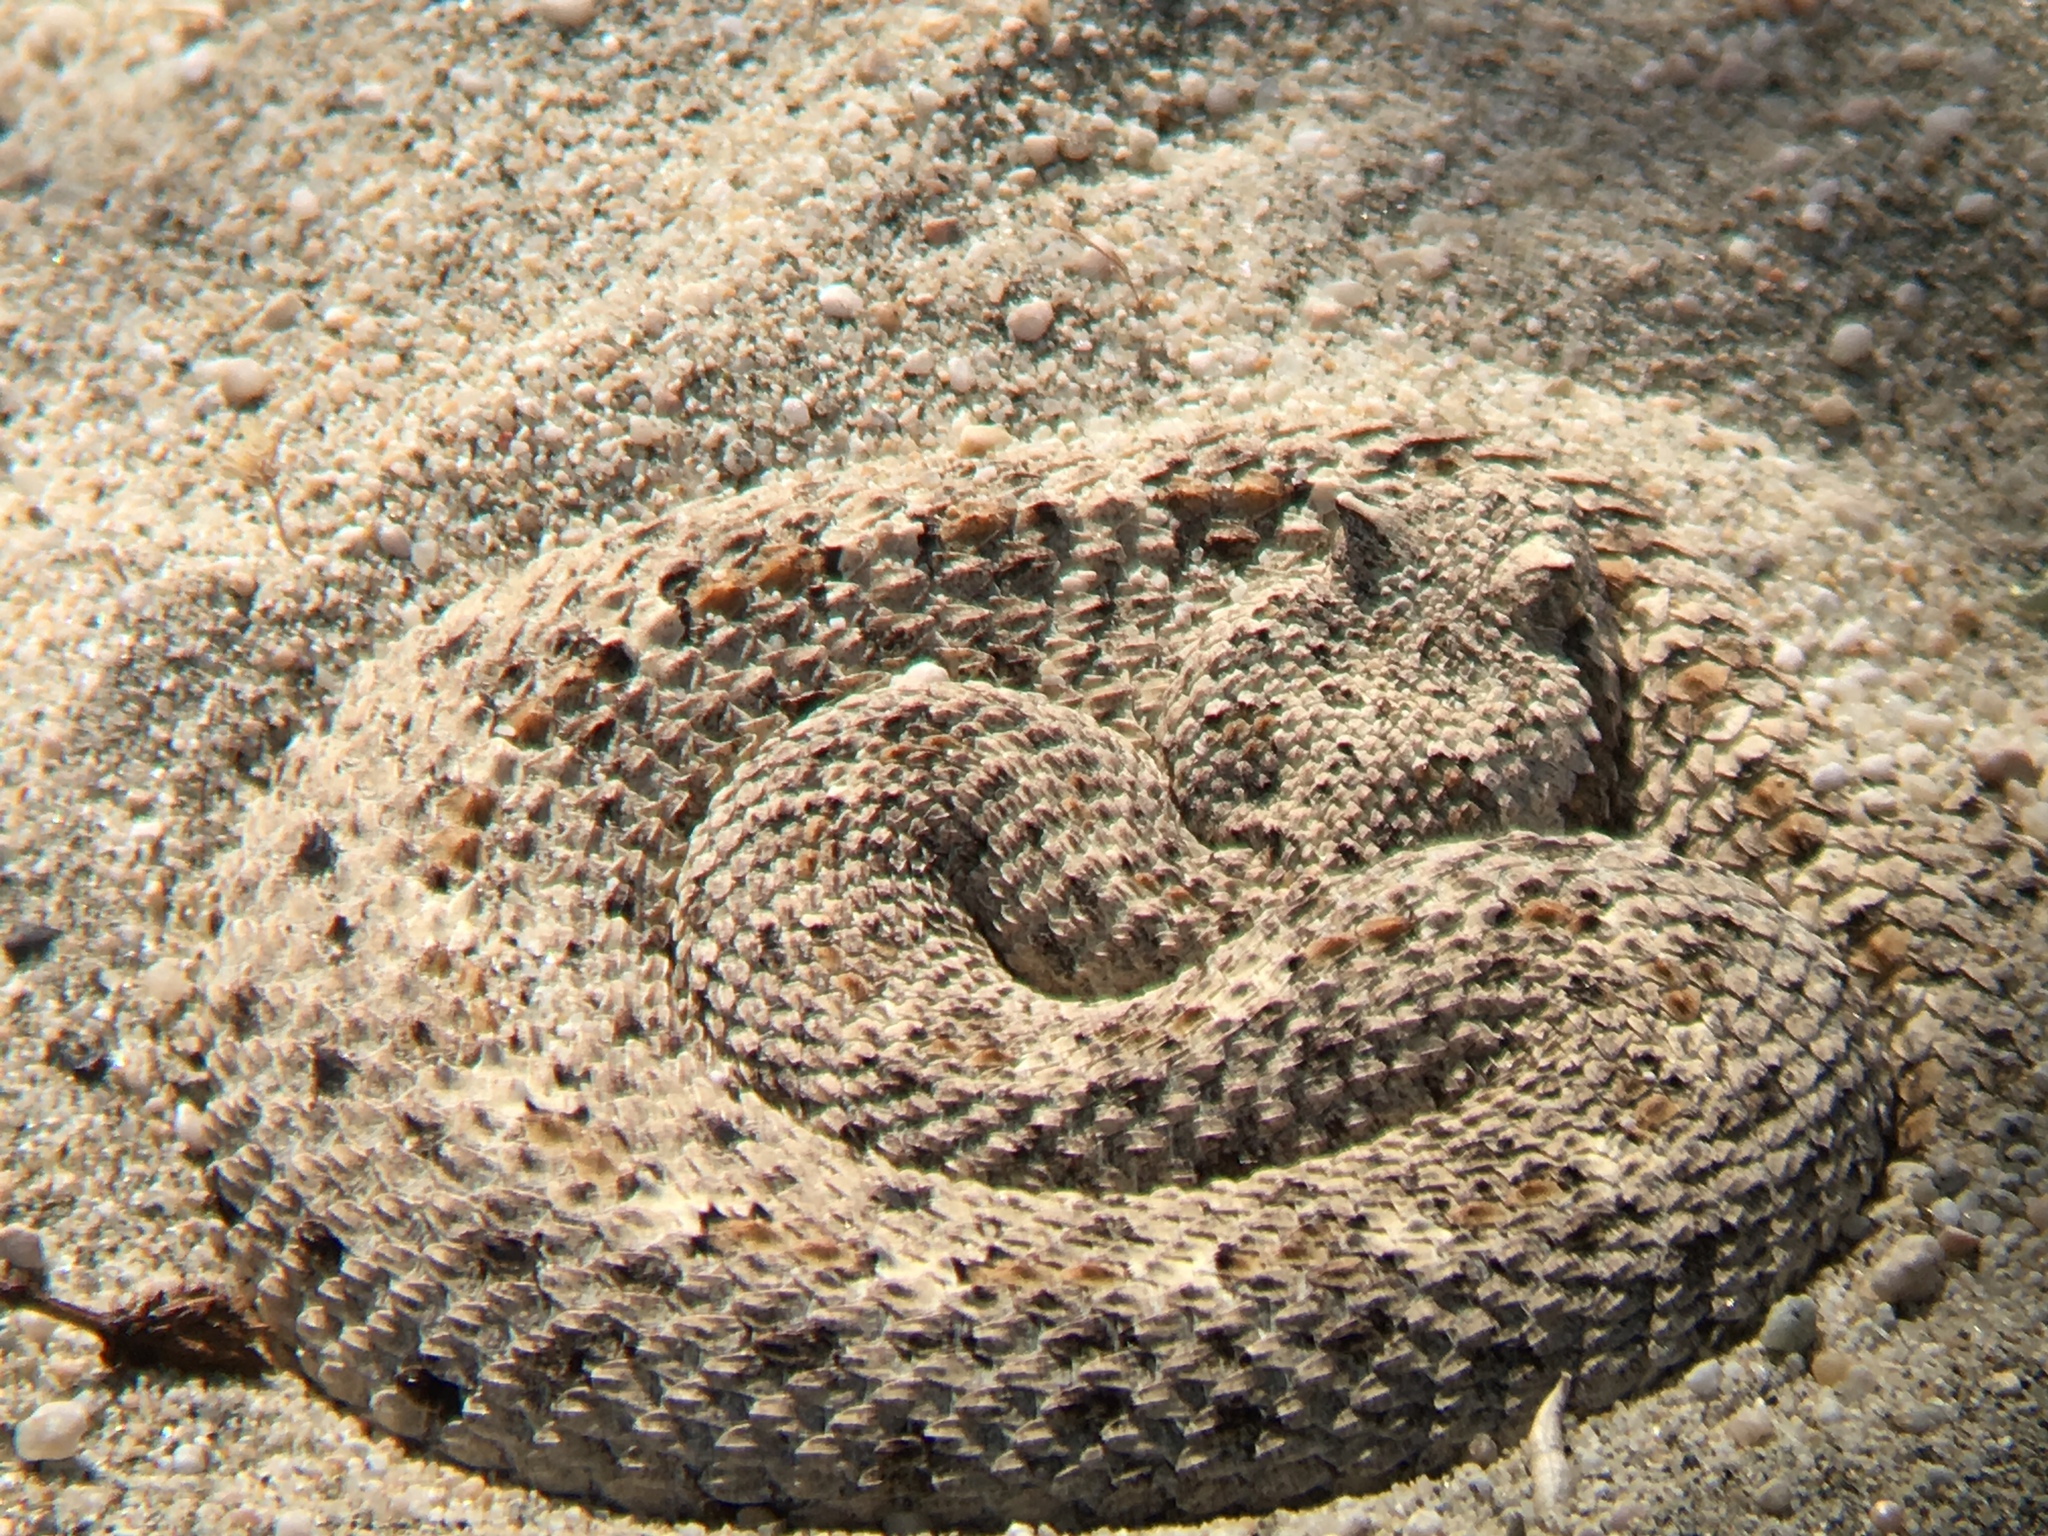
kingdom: Animalia
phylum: Chordata
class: Squamata
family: Viperidae
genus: Crotalus
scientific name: Crotalus cerastes
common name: Sidewinder
